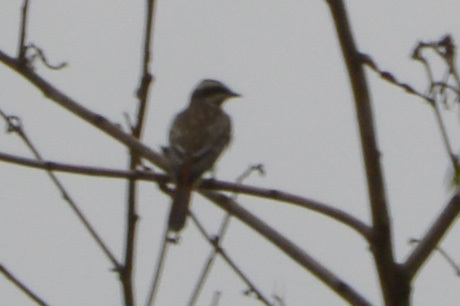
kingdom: Animalia
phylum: Chordata
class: Aves
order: Passeriformes
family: Tyrannidae
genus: Empidonomus
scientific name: Empidonomus varius
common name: Variegated flycatcher
